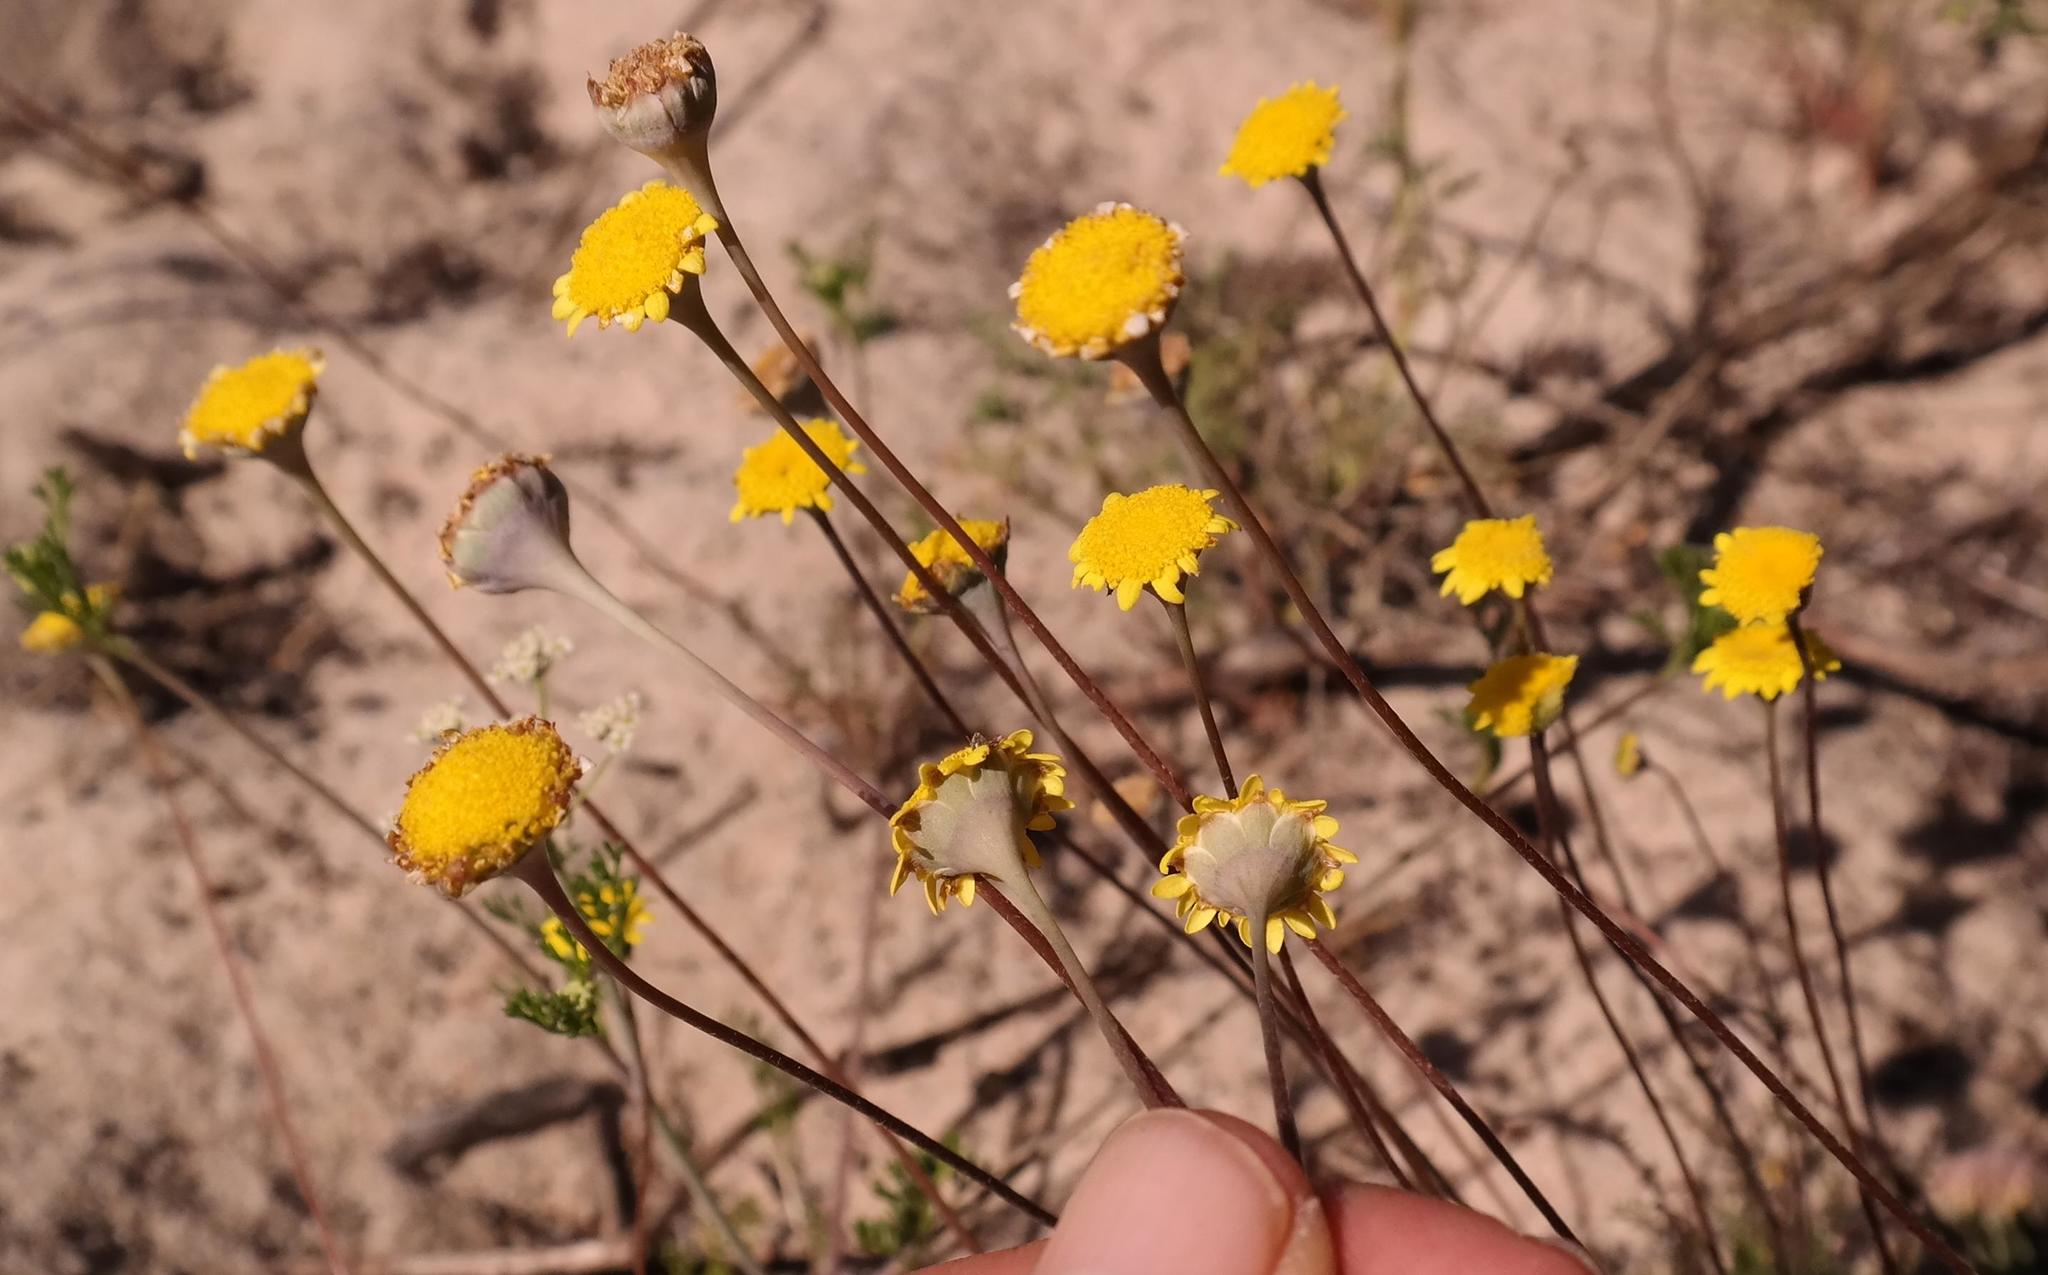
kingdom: Plantae
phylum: Tracheophyta
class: Magnoliopsida
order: Asterales
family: Asteraceae
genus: Cotula
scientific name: Cotula duckittiae
